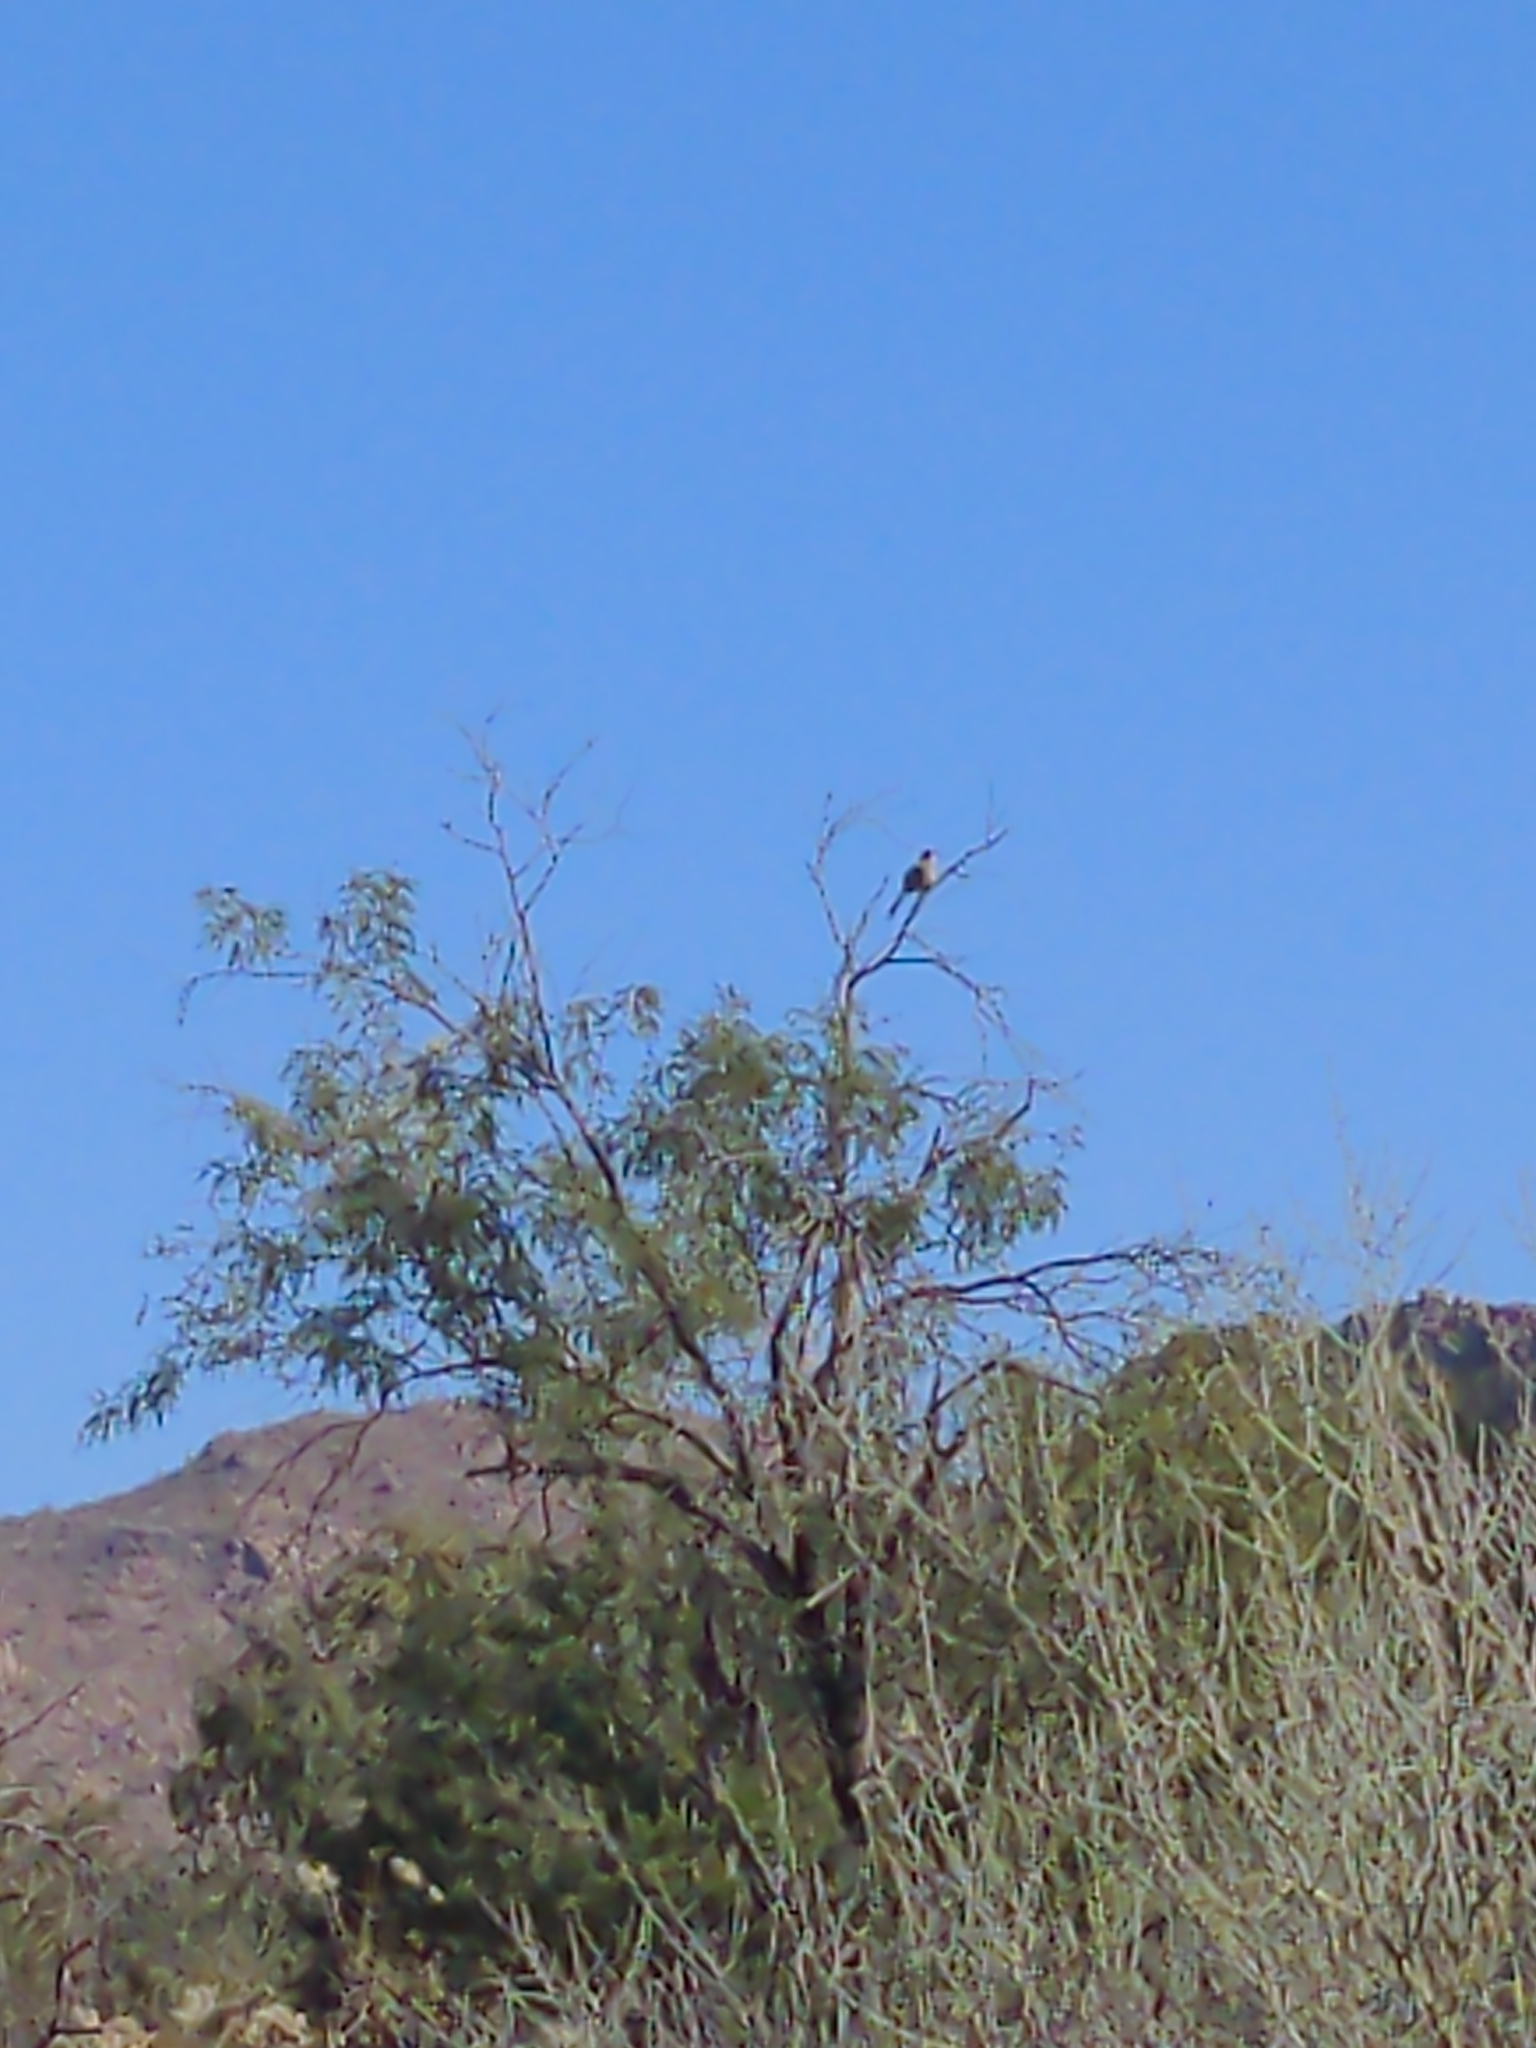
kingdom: Animalia
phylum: Chordata
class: Aves
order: Passeriformes
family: Mimidae
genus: Toxostoma
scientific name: Toxostoma curvirostre
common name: Curve-billed thrasher
